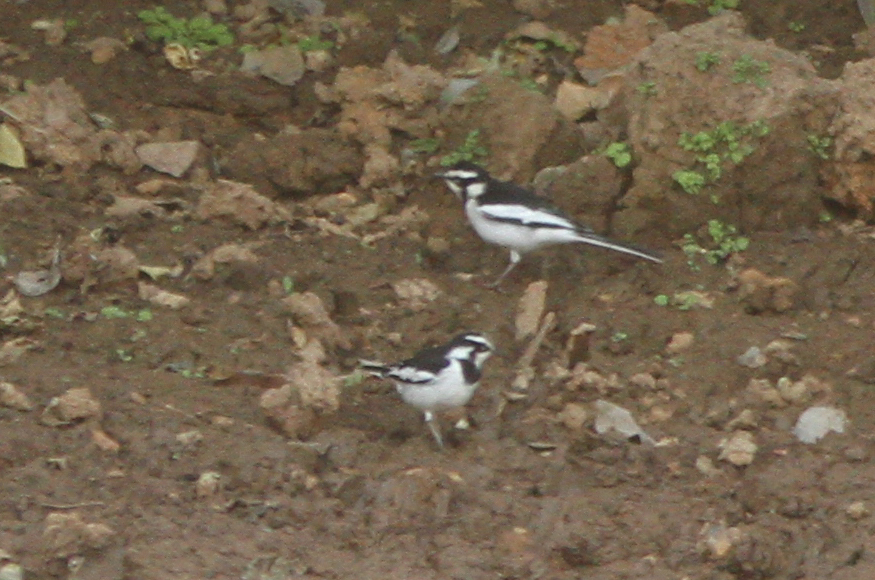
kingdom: Animalia
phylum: Chordata
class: Aves
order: Passeriformes
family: Motacillidae
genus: Motacilla
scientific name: Motacilla aguimp
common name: African pied wagtail
